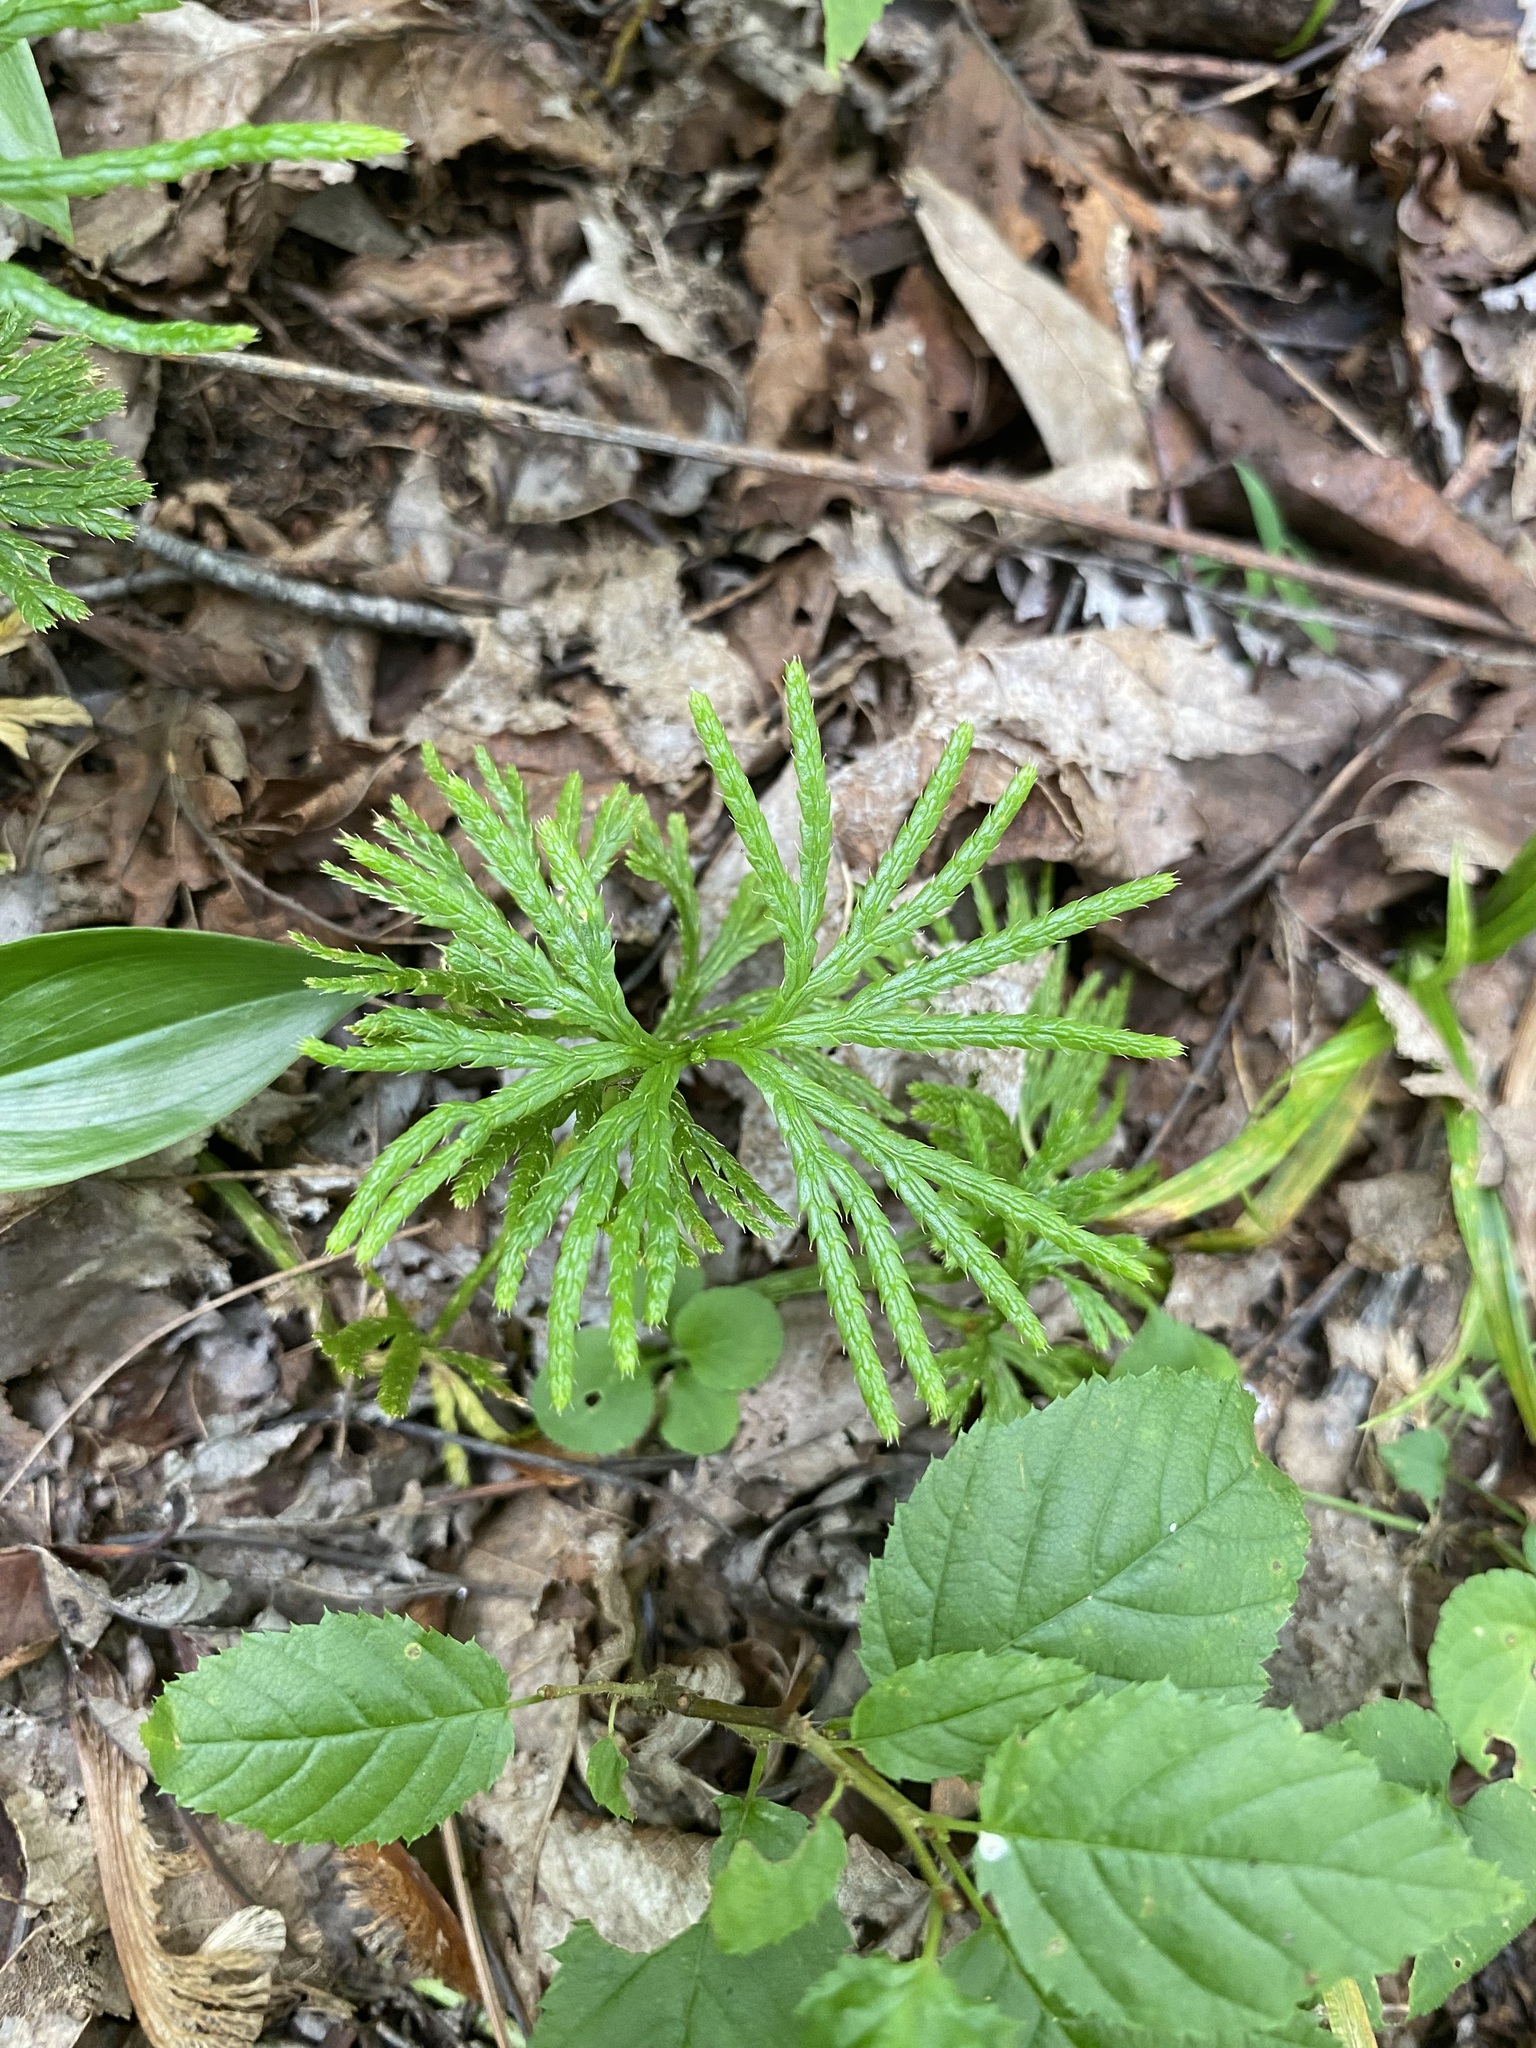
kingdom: Plantae
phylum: Tracheophyta
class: Lycopodiopsida
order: Lycopodiales
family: Lycopodiaceae
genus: Diphasiastrum
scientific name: Diphasiastrum digitatum
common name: Southern running-pine
